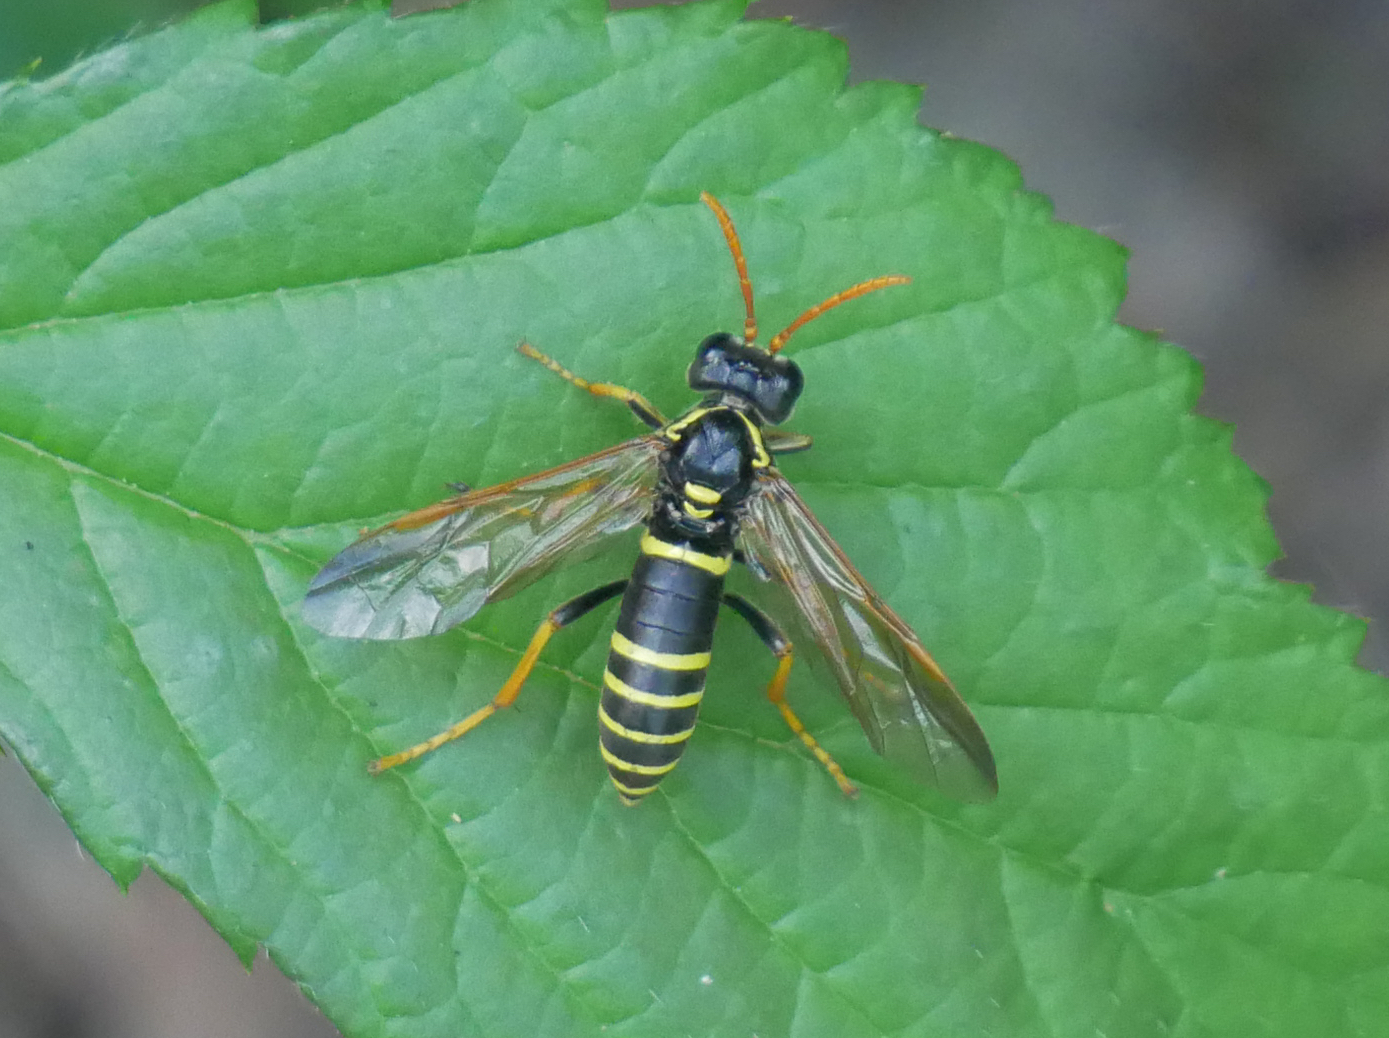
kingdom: Animalia
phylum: Arthropoda
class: Insecta
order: Hymenoptera
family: Tenthredinidae
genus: Tenthredo
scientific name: Tenthredo scrophulariae
